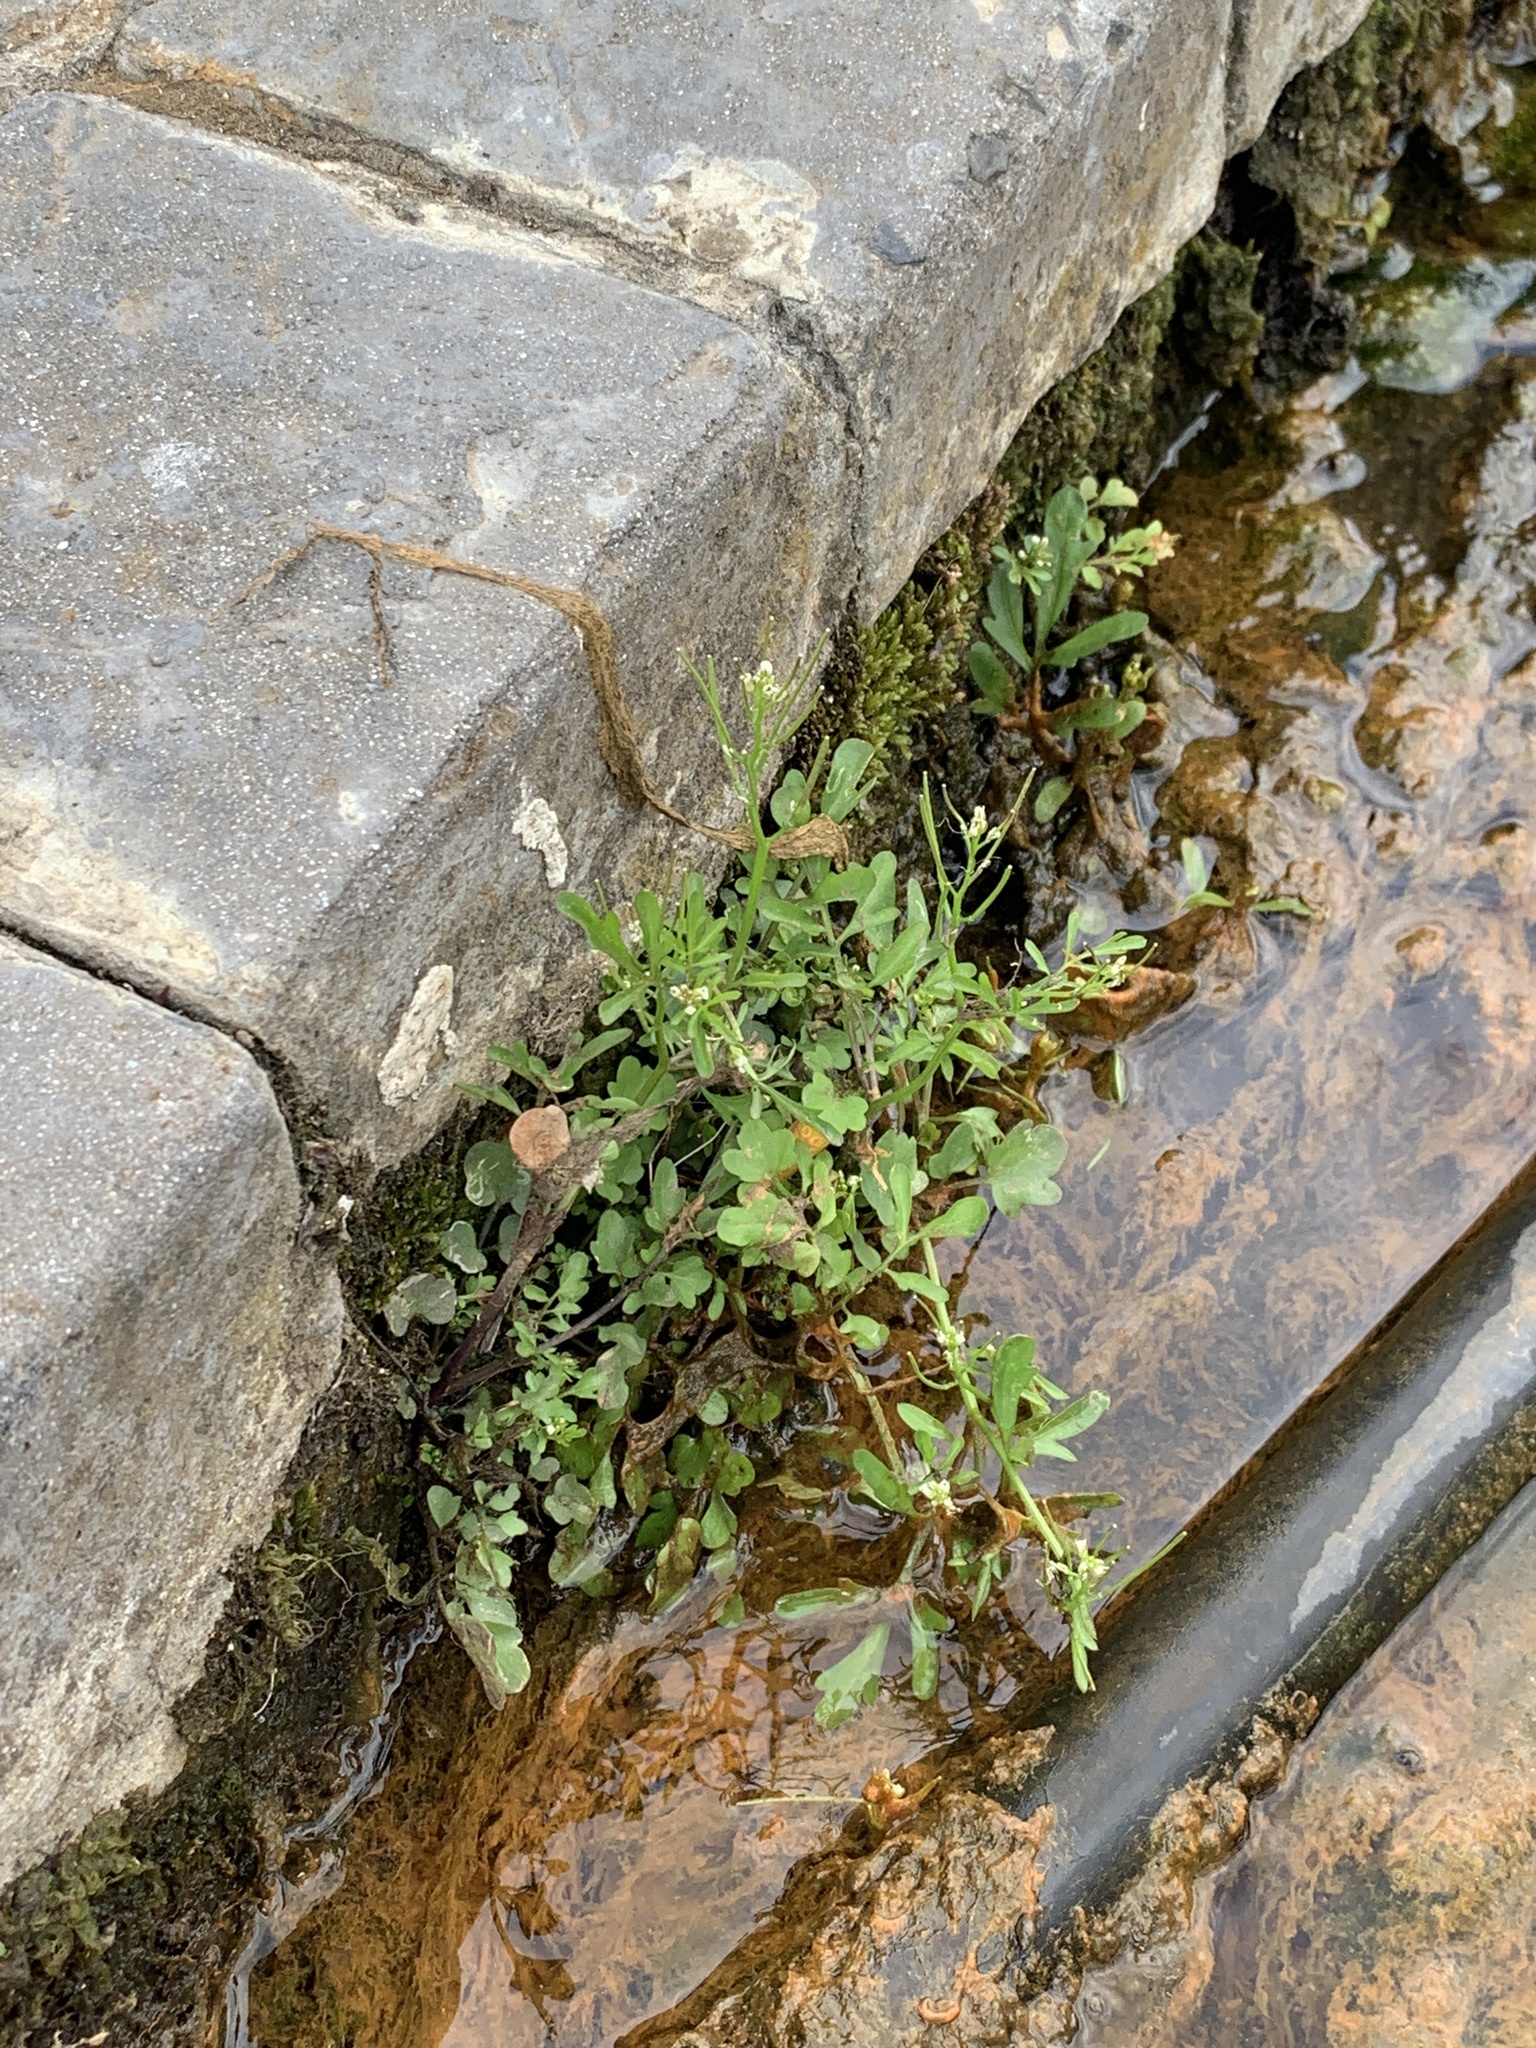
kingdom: Plantae
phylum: Tracheophyta
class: Magnoliopsida
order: Brassicales
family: Brassicaceae
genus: Cardamine
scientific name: Cardamine occulta
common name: Asian wavy bittercress
